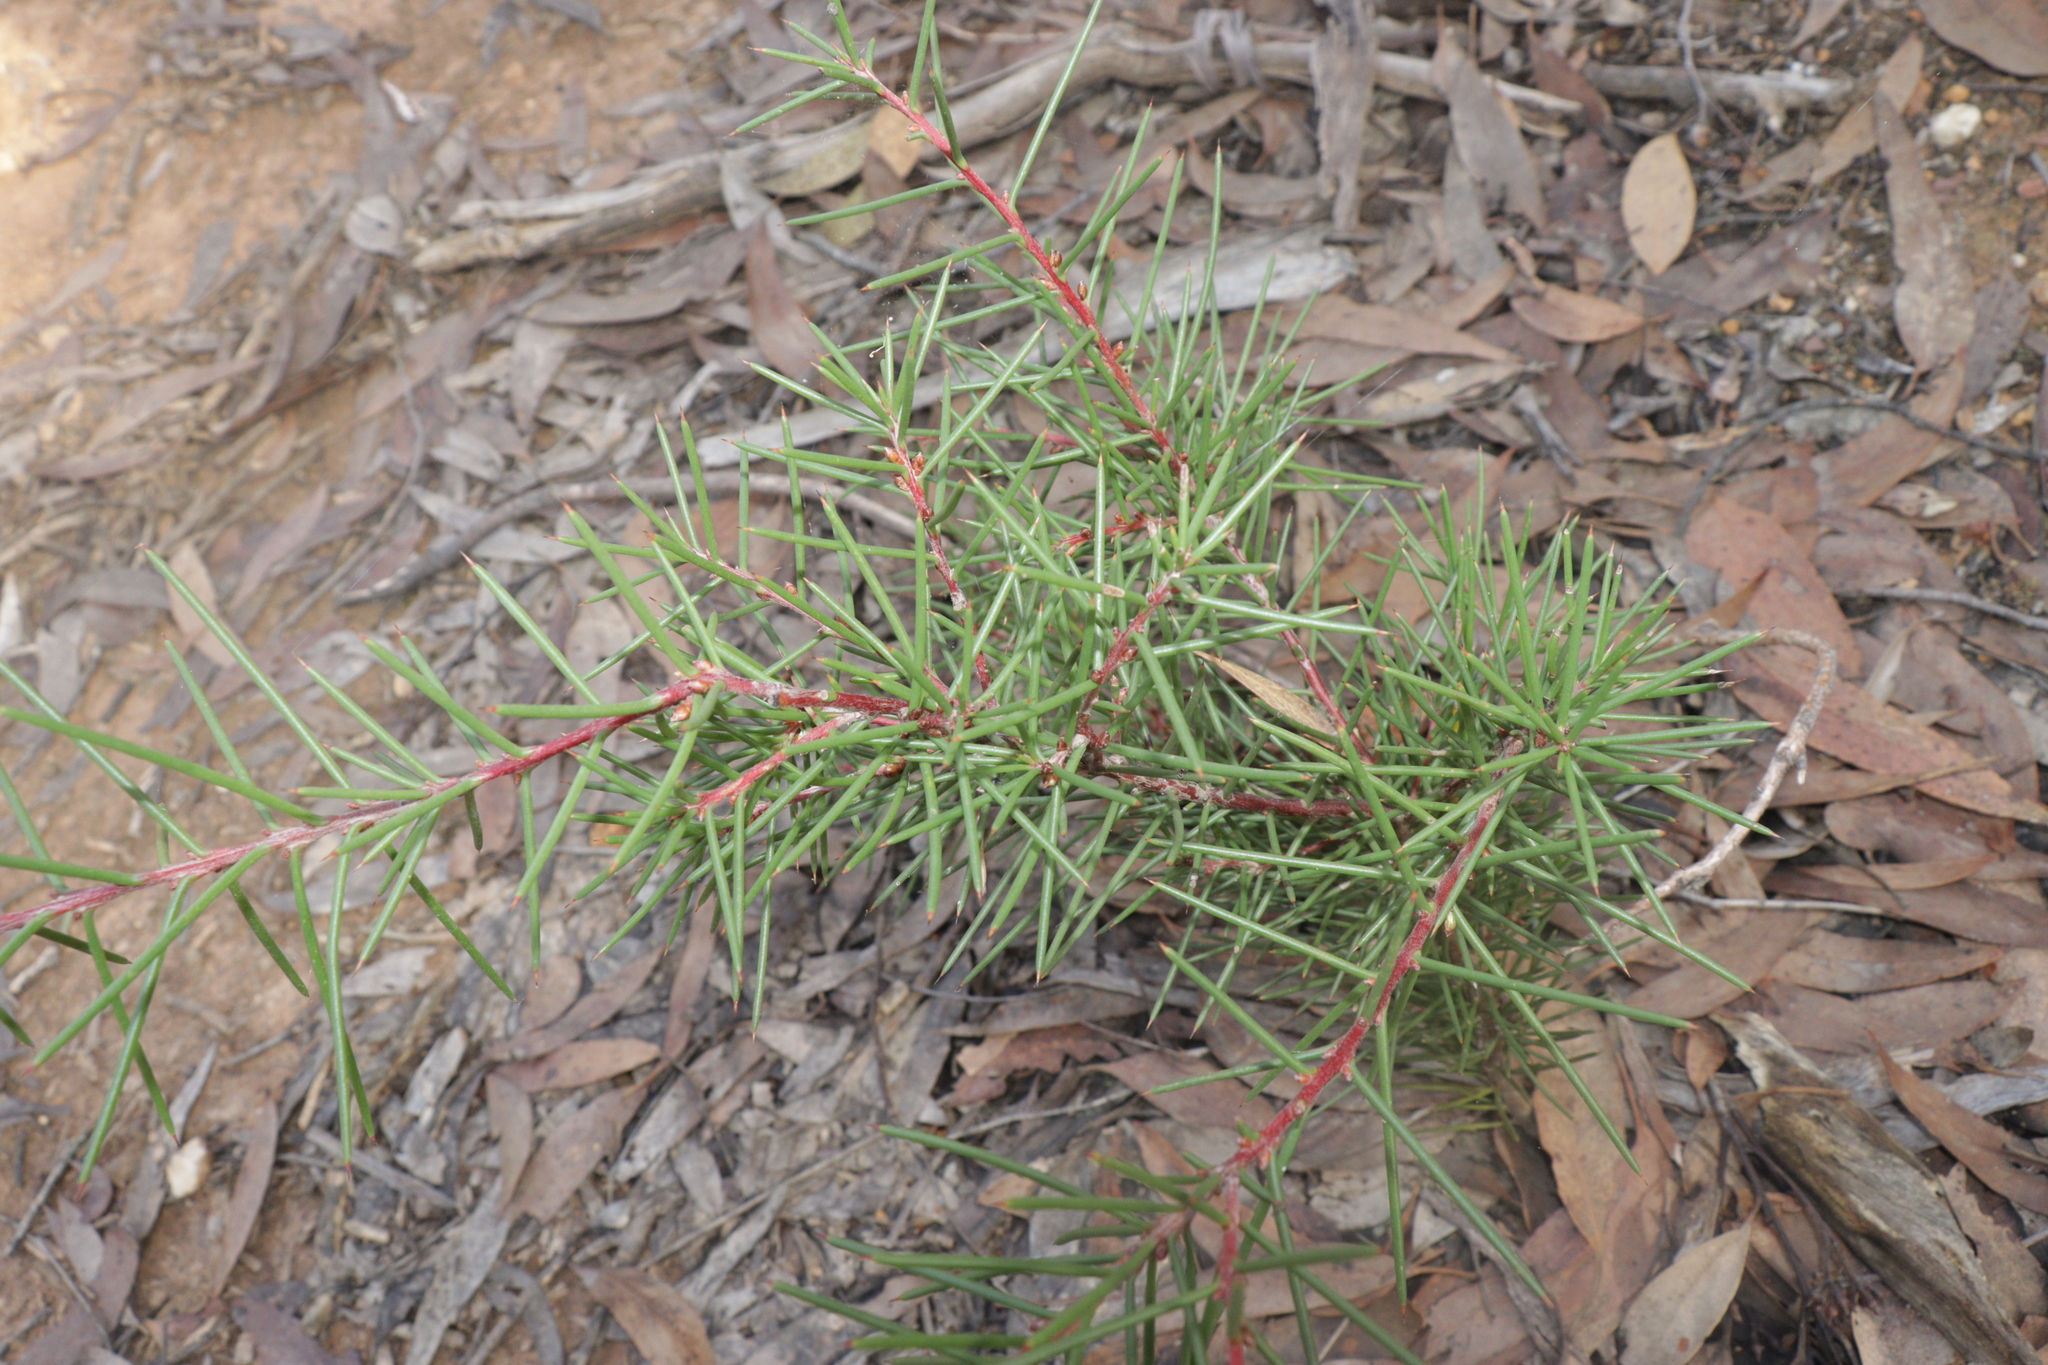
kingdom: Plantae
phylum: Tracheophyta
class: Magnoliopsida
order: Proteales
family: Proteaceae
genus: Hakea
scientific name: Hakea decurrens
